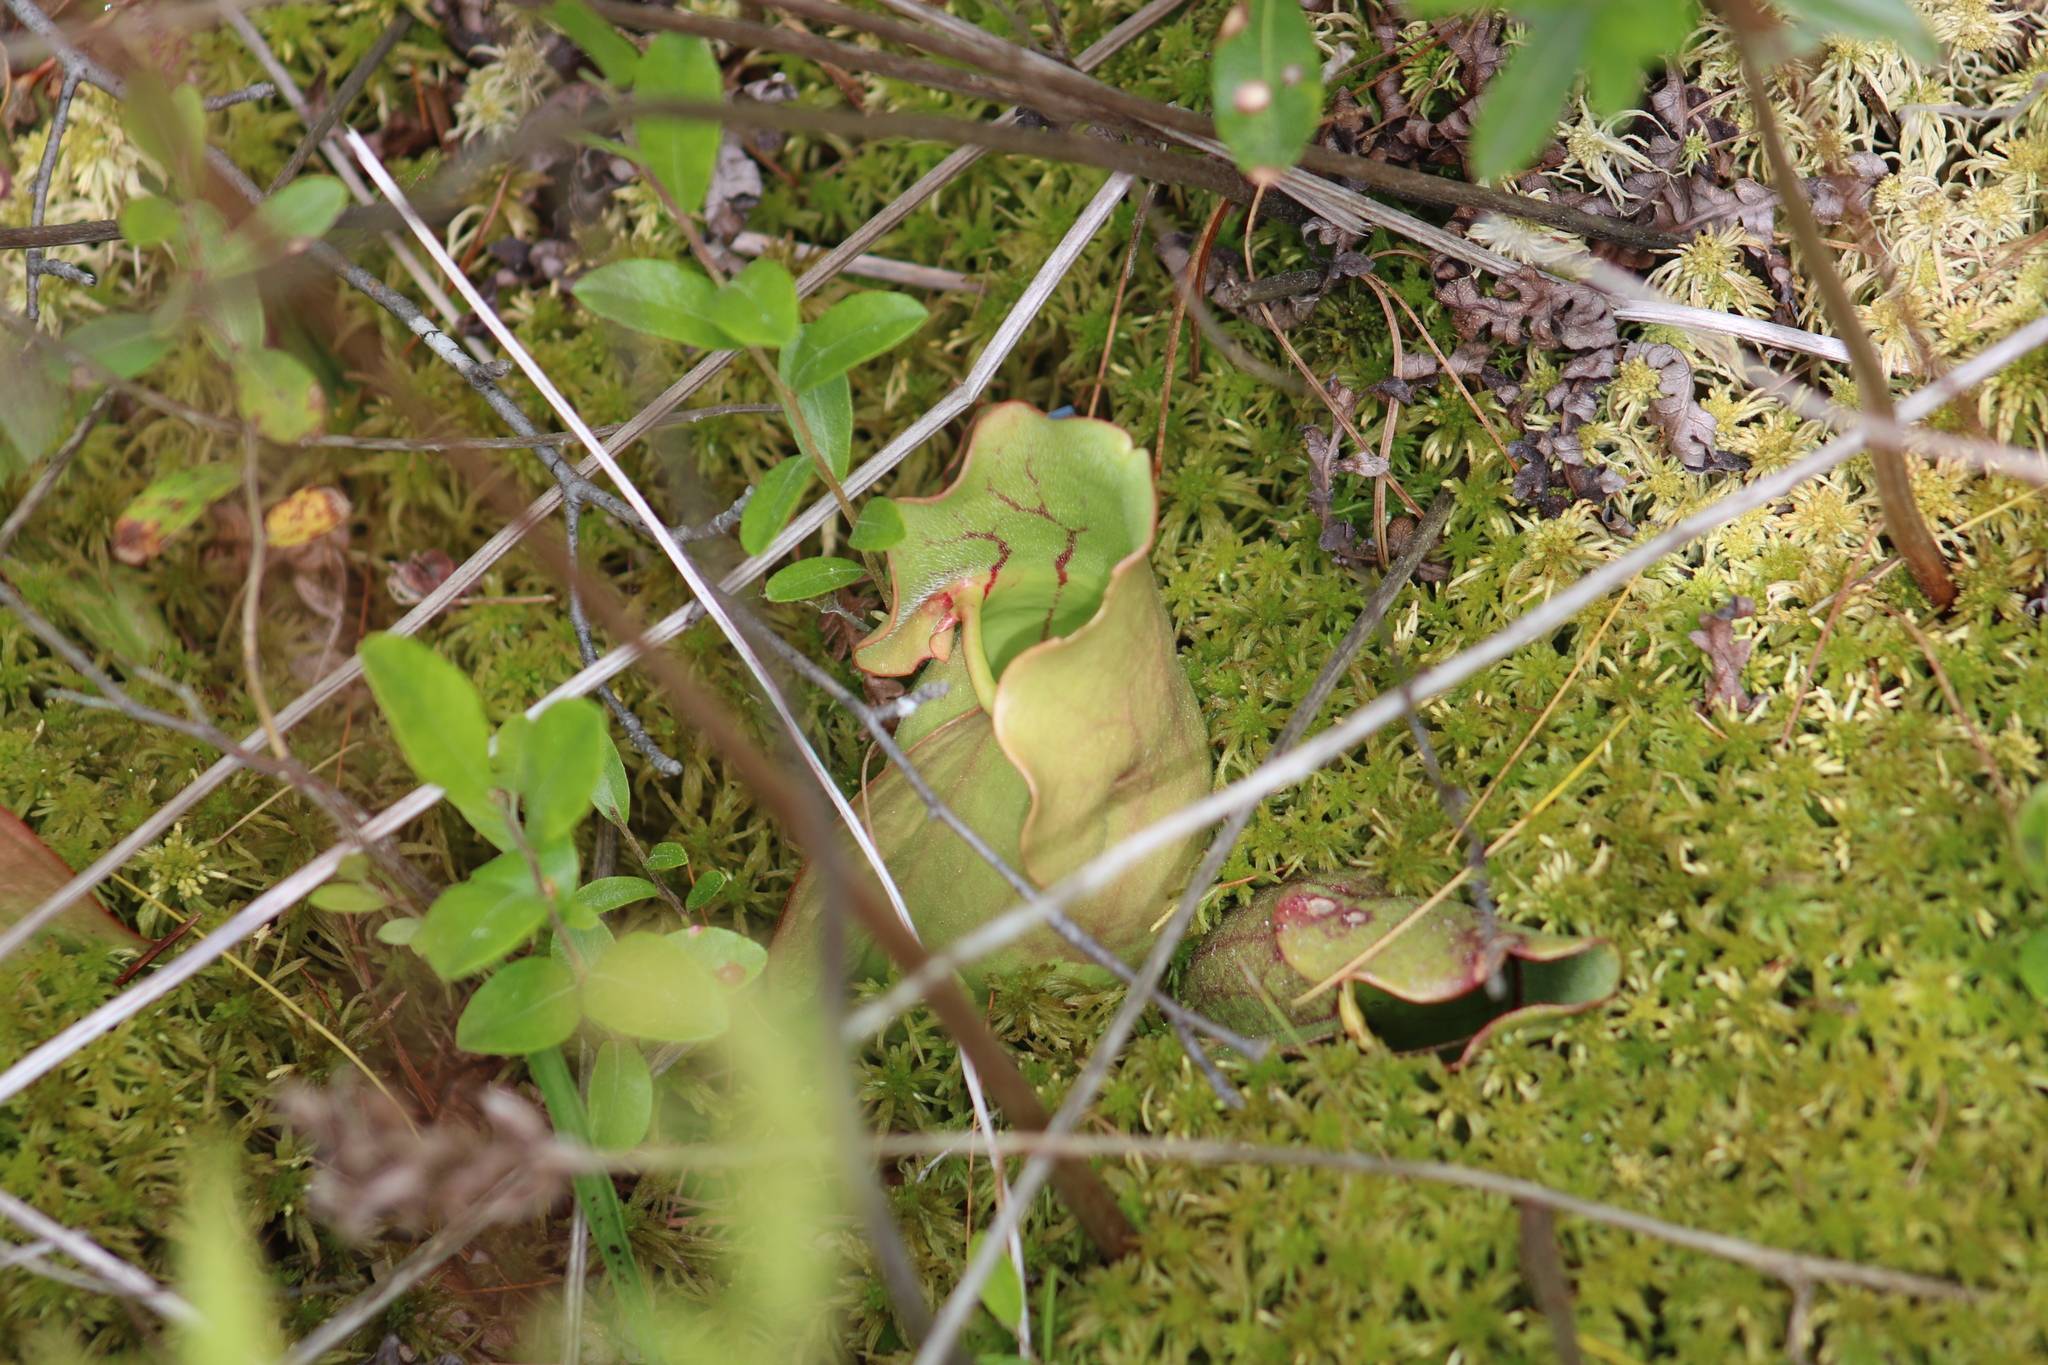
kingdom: Plantae
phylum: Tracheophyta
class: Magnoliopsida
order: Ericales
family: Sarraceniaceae
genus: Sarracenia
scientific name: Sarracenia purpurea
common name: Pitcherplant
